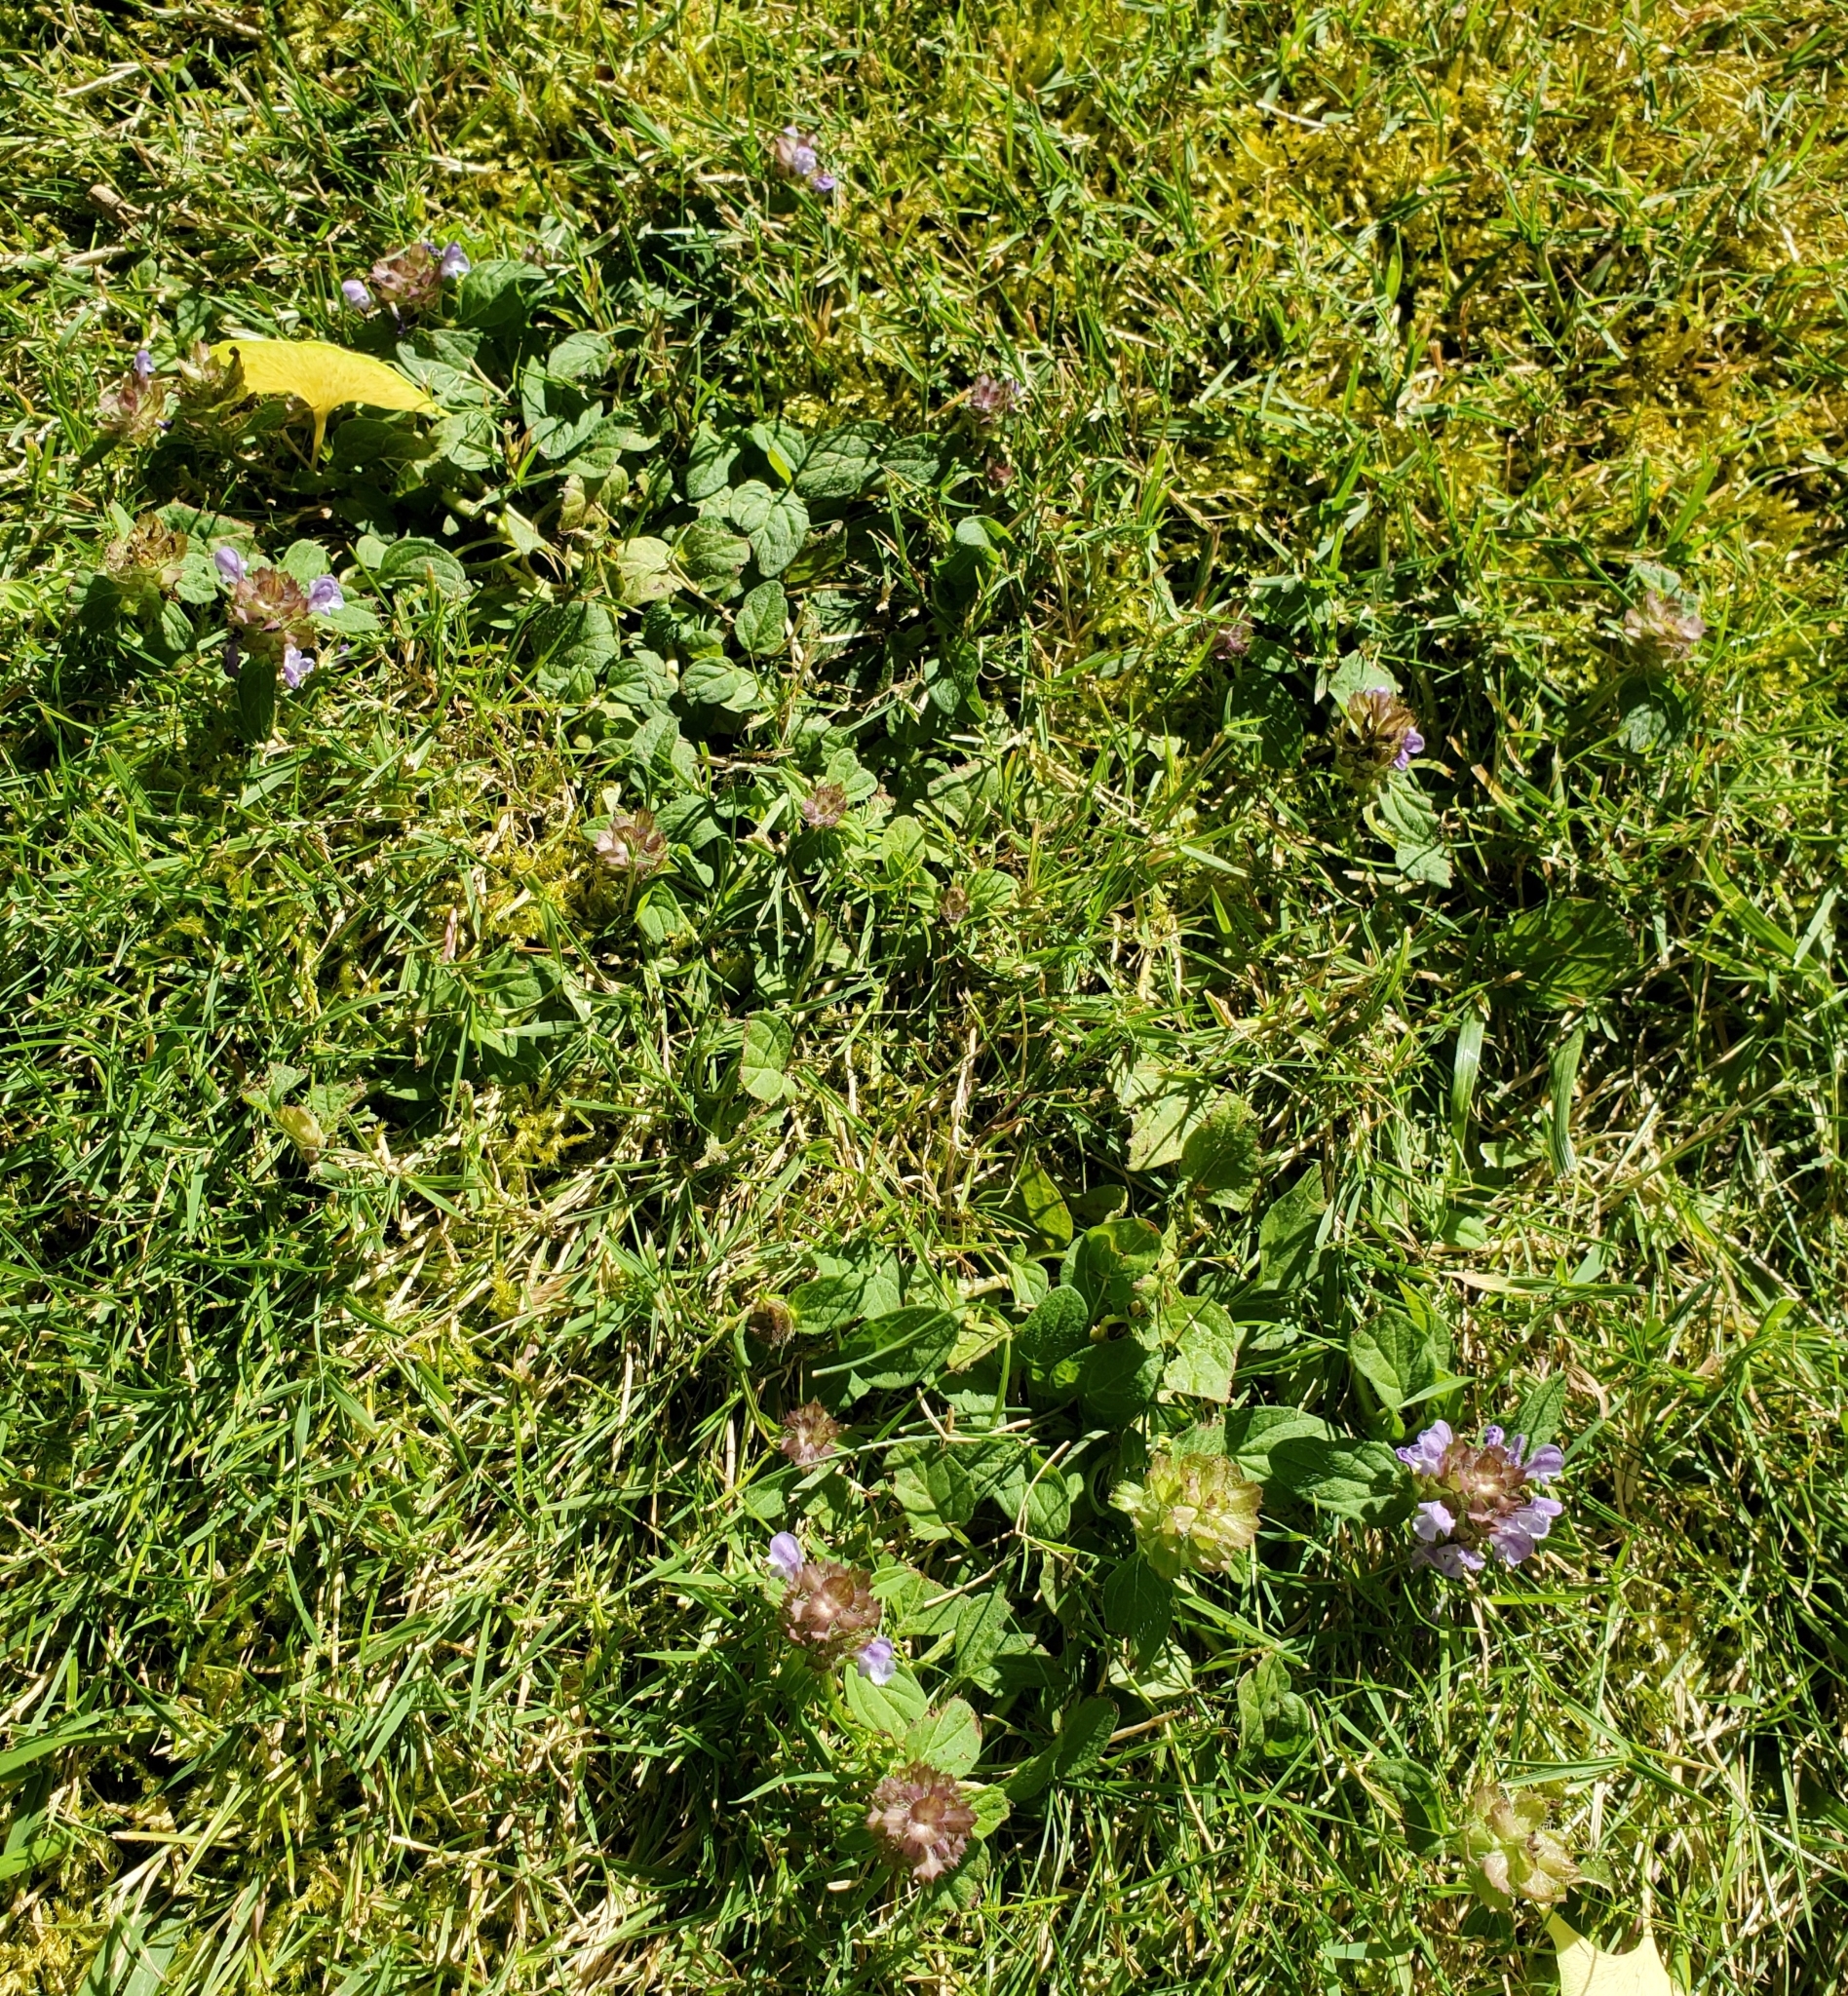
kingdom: Plantae
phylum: Tracheophyta
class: Magnoliopsida
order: Lamiales
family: Lamiaceae
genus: Prunella
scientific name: Prunella vulgaris
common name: Heal-all
